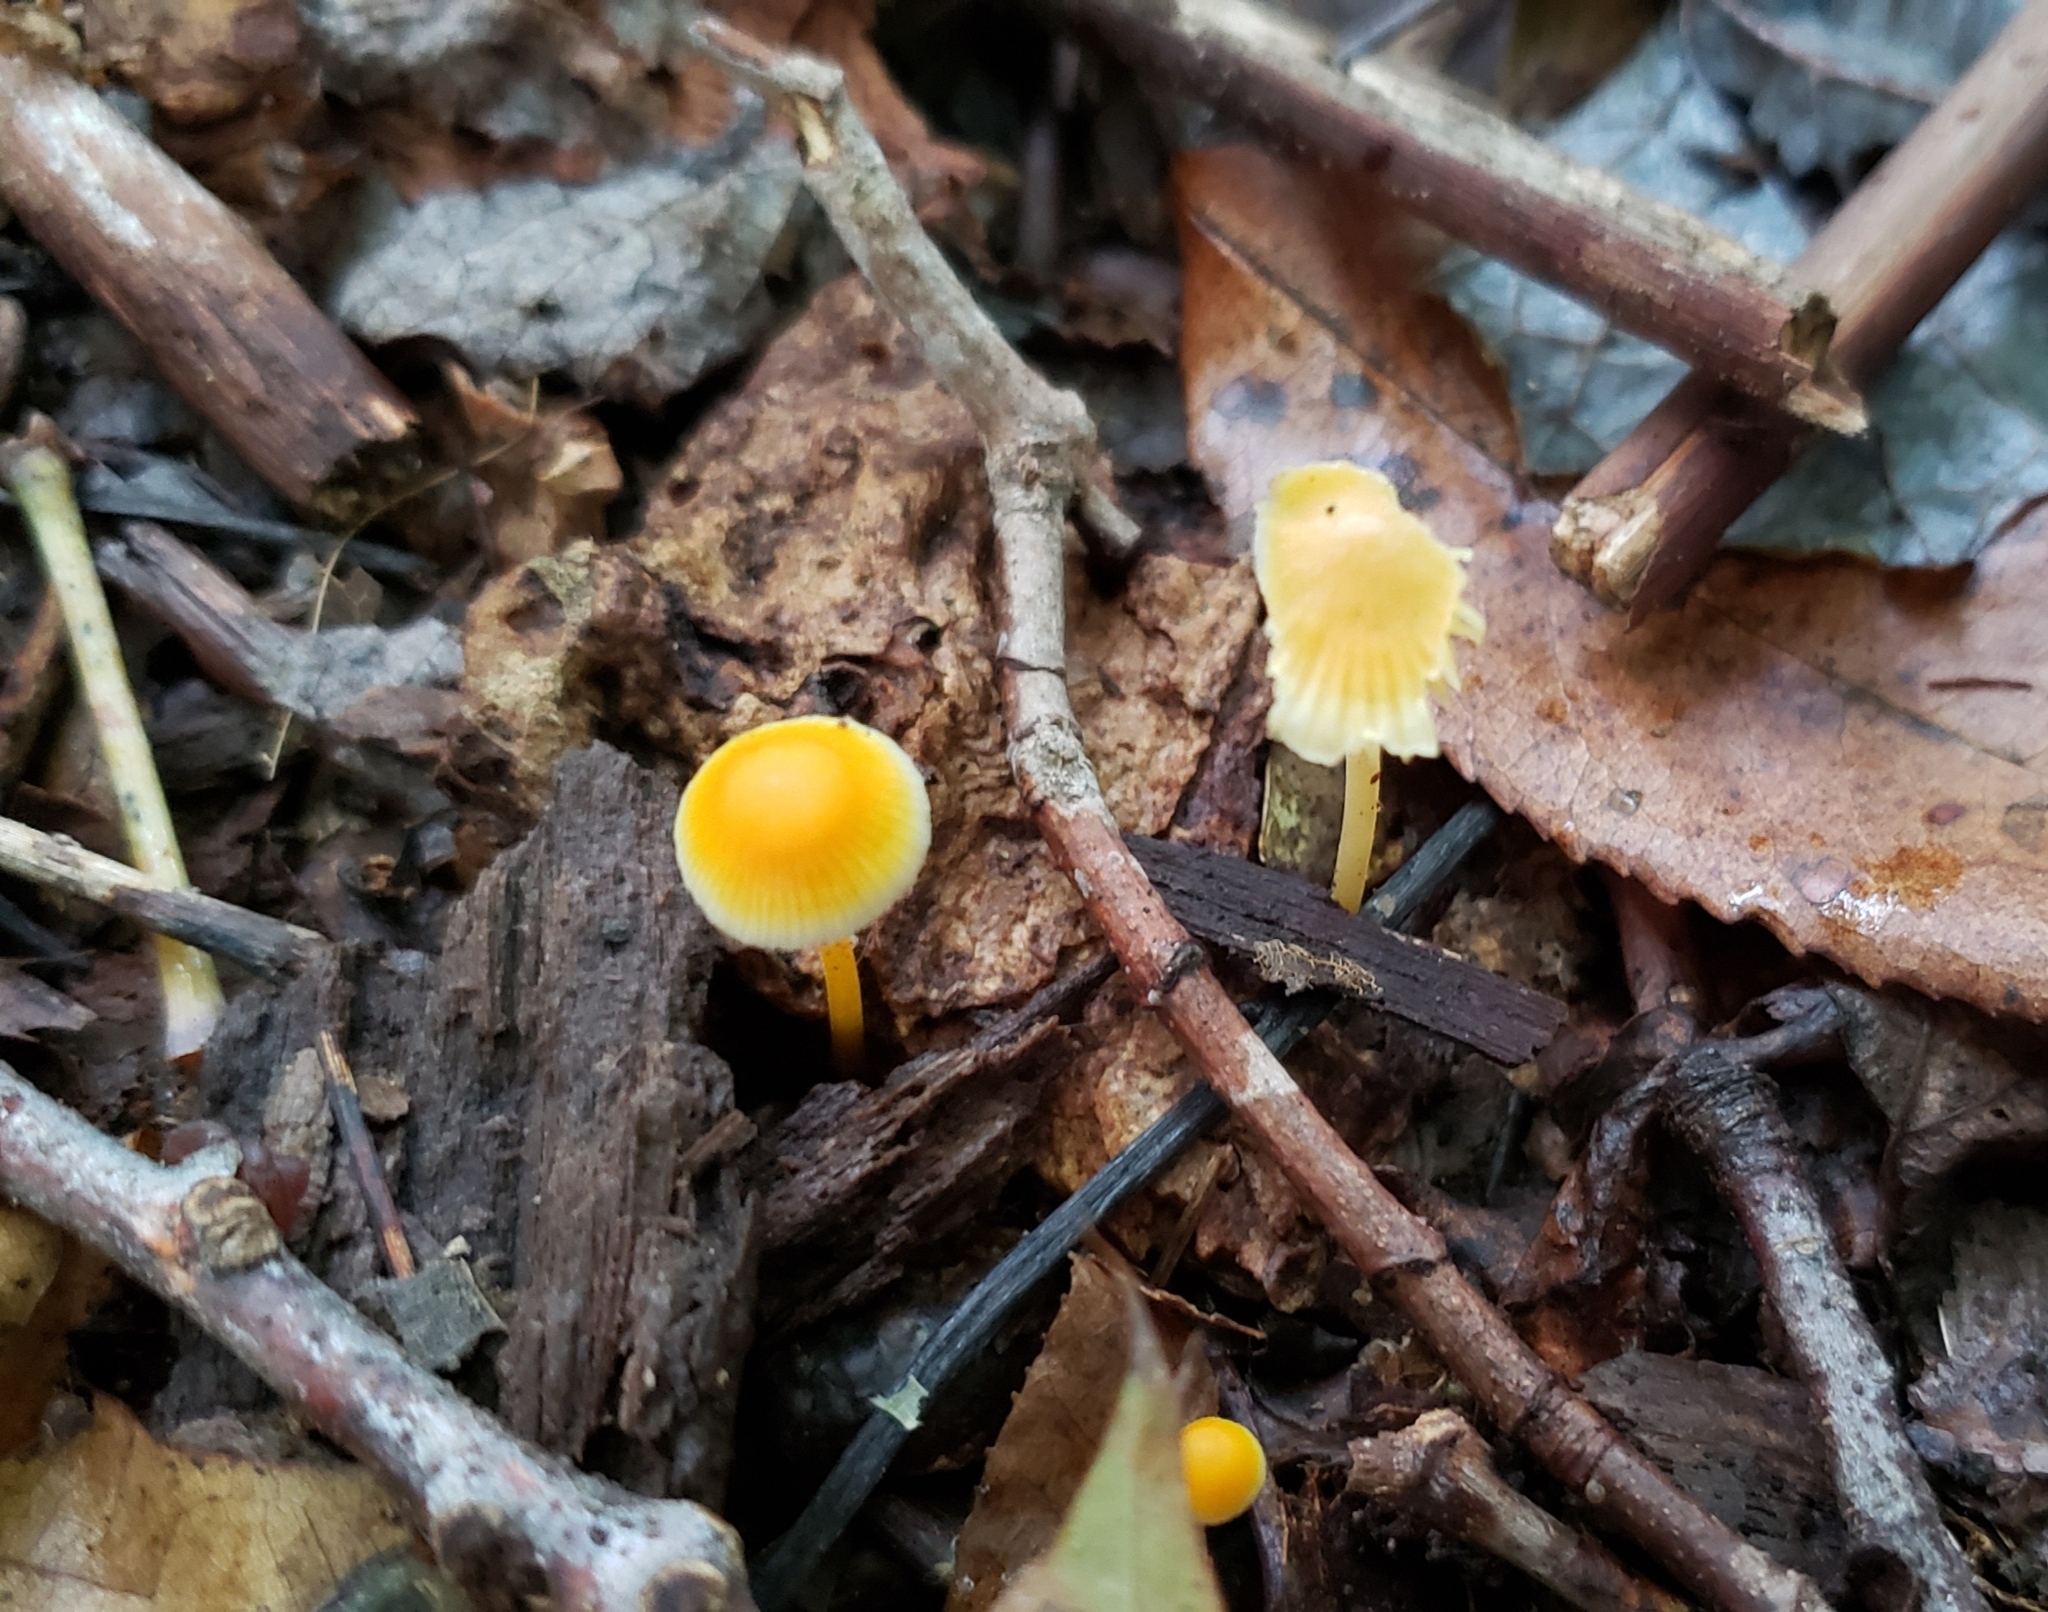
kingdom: Fungi
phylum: Basidiomycota
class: Agaricomycetes
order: Agaricales
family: Mycenaceae
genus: Mycena
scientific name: Mycena crocea
